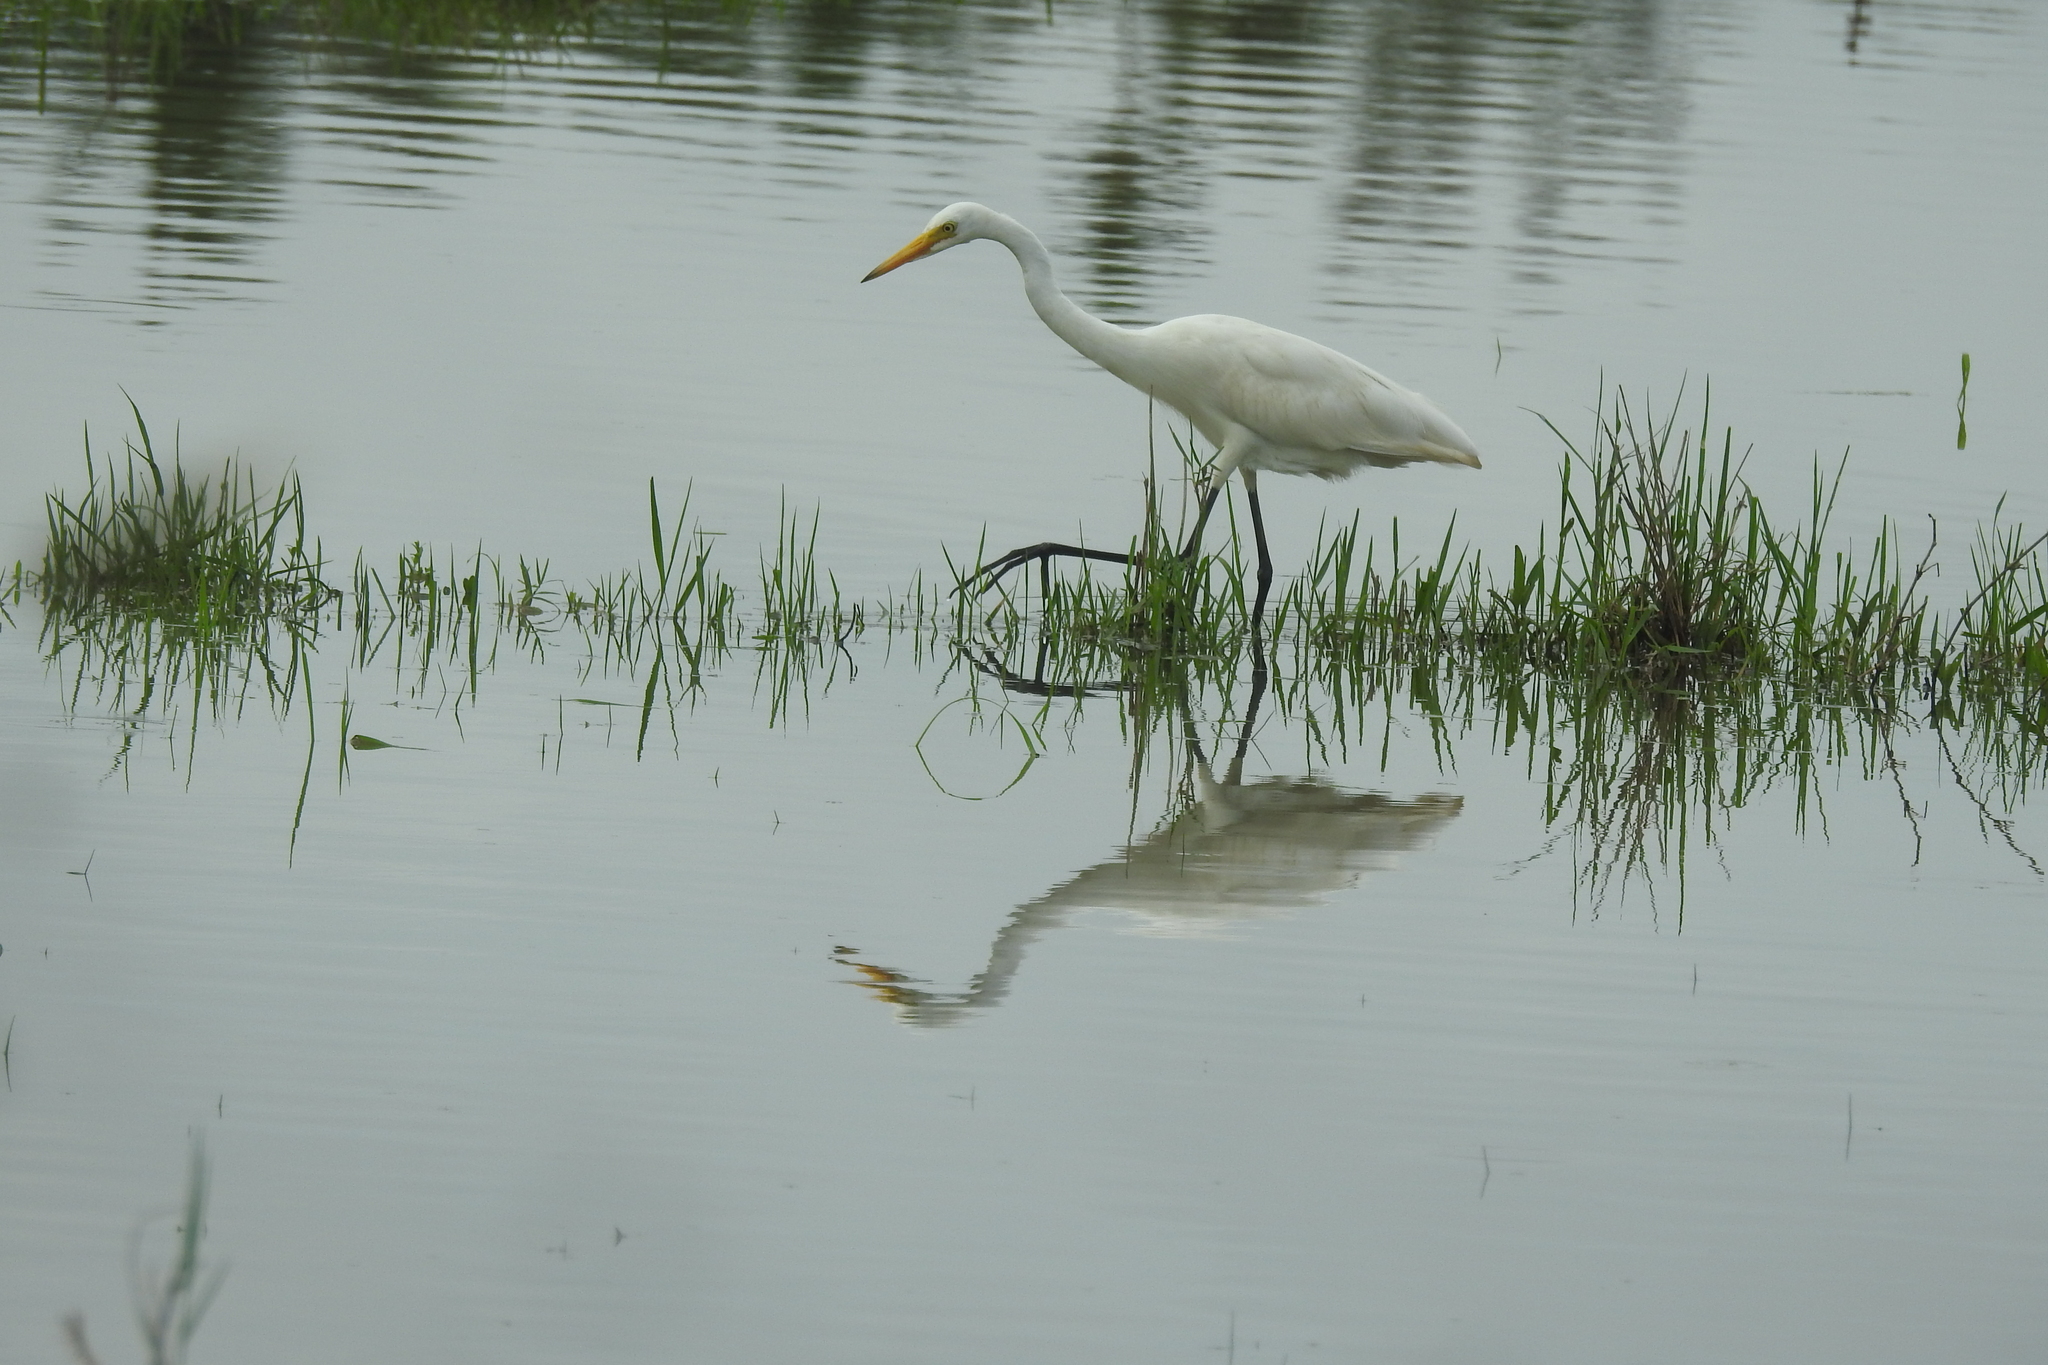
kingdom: Animalia
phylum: Chordata
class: Aves
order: Pelecaniformes
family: Ardeidae
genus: Ardea
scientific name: Ardea alba
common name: Great egret
